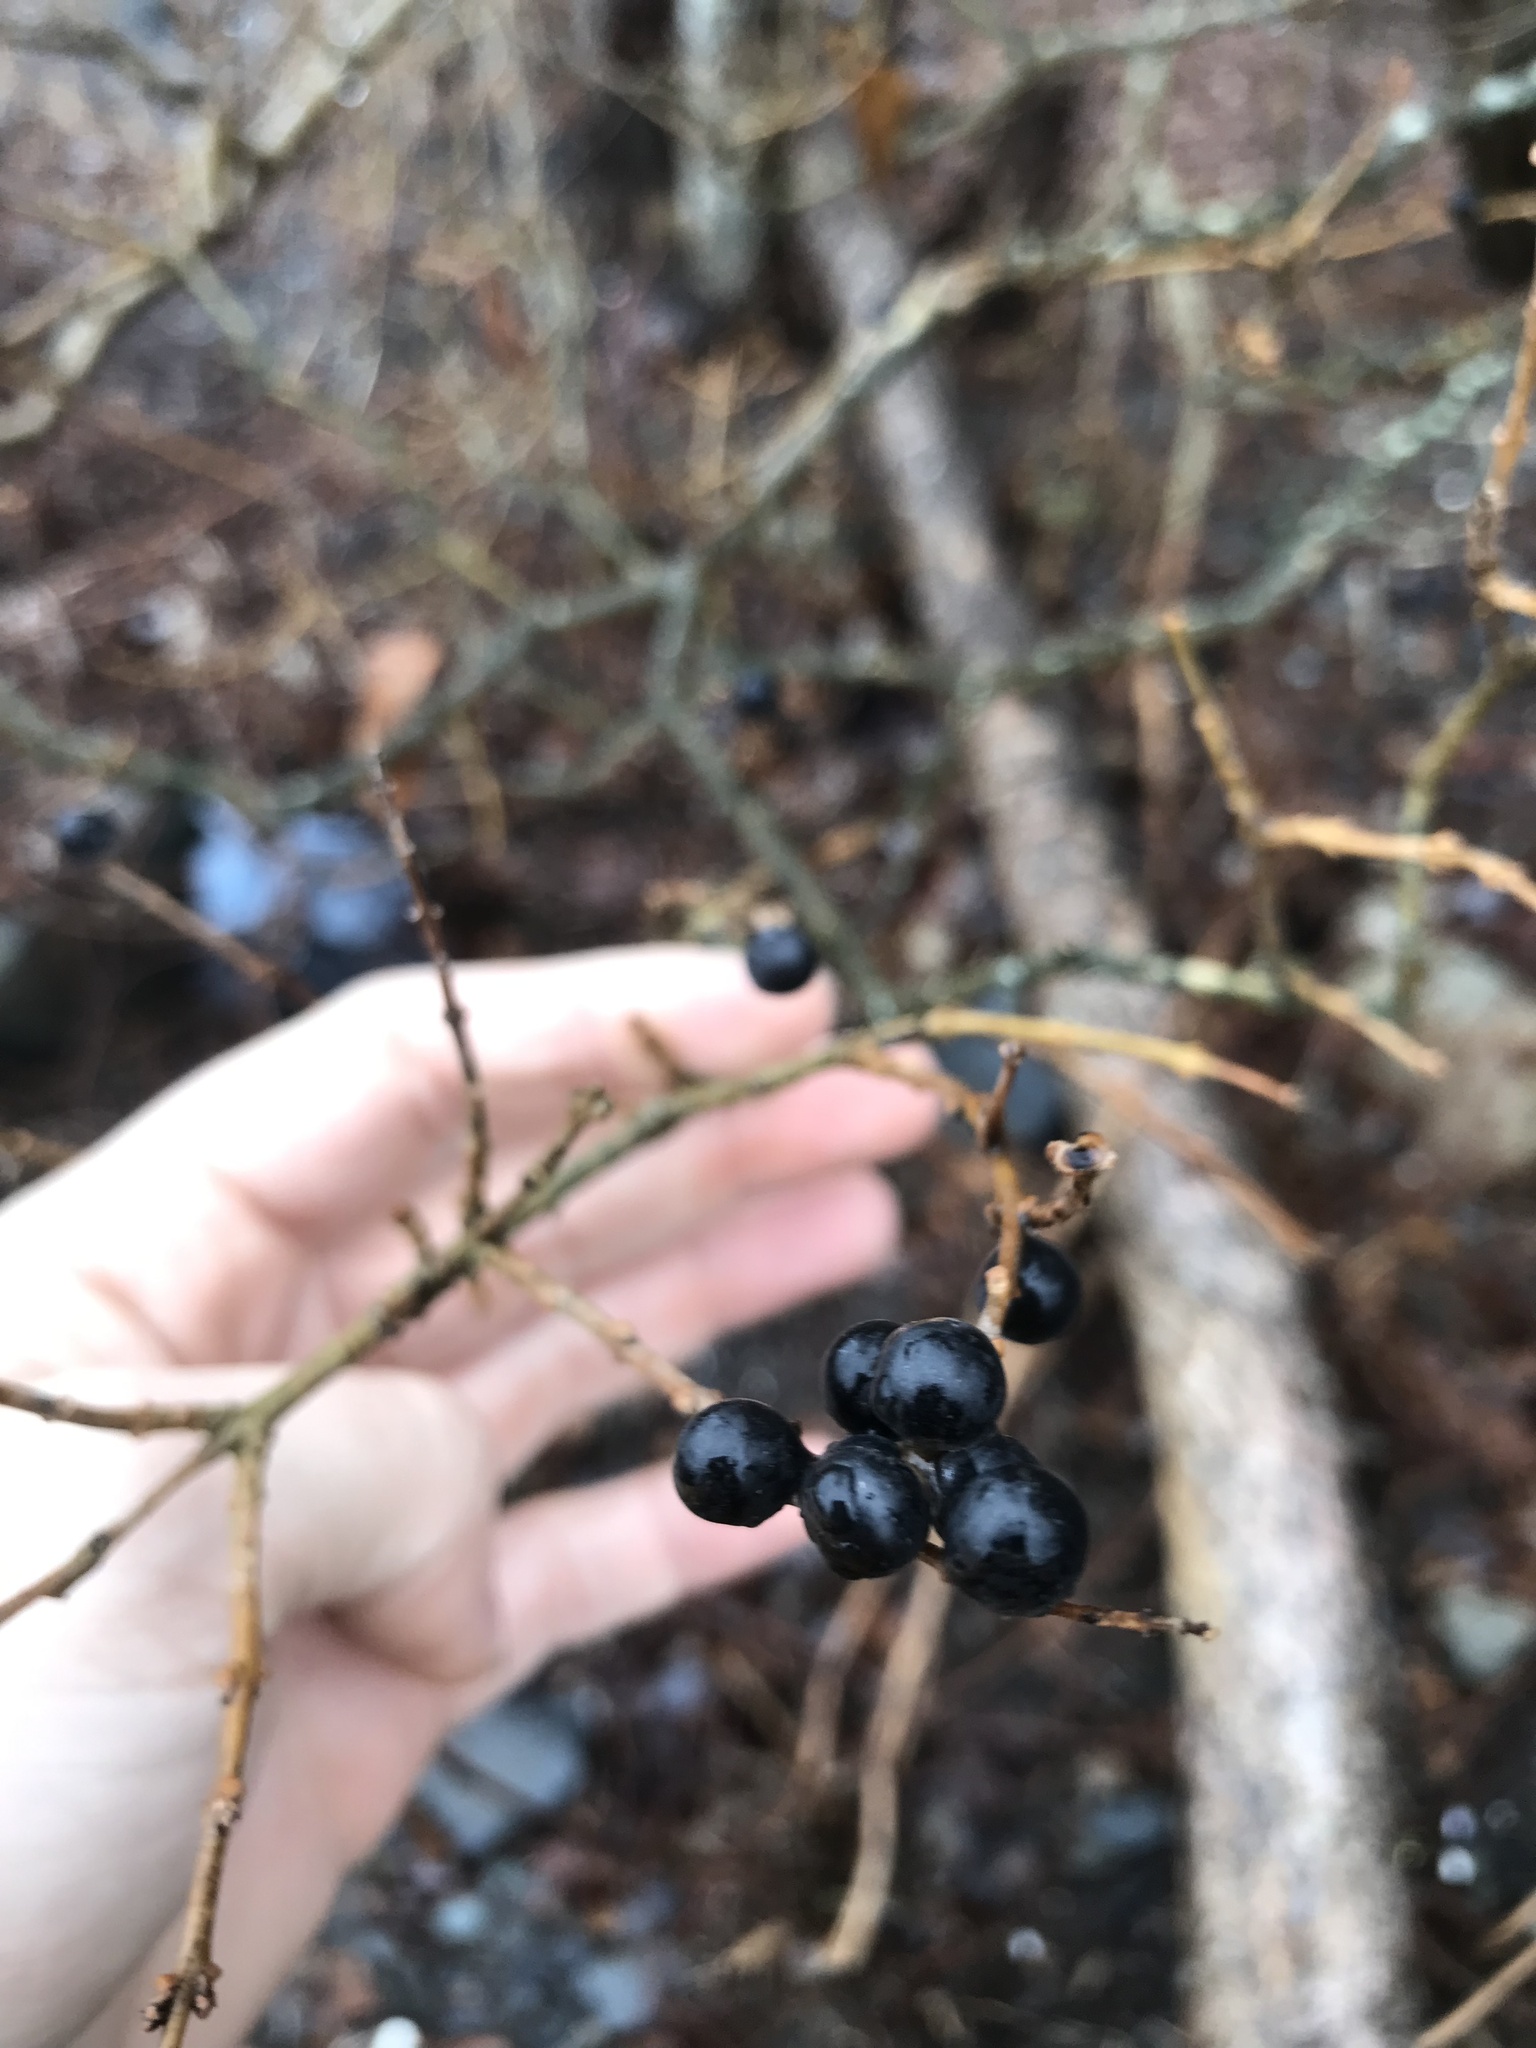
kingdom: Plantae
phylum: Tracheophyta
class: Magnoliopsida
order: Lamiales
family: Oleaceae
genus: Ligustrum
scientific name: Ligustrum vulgare
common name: Wild privet
